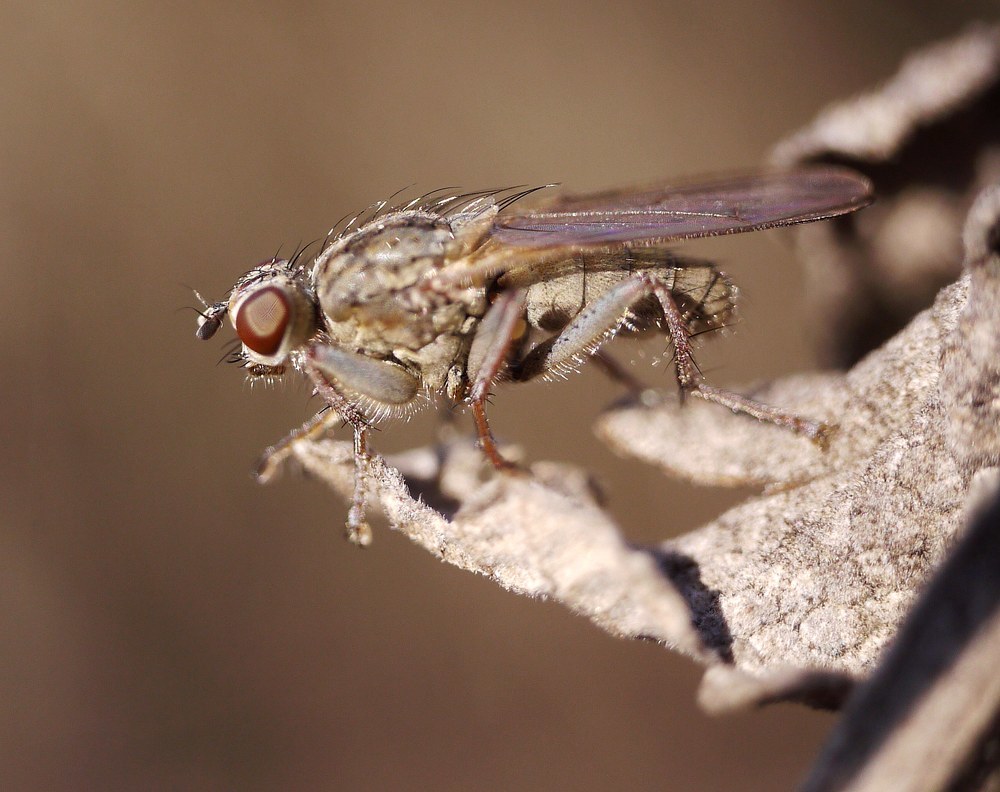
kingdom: Animalia
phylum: Arthropoda
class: Insecta
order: Diptera
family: Scathophagidae
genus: Scathophaga
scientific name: Scathophaga stercoraria
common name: Yellow dung fly
